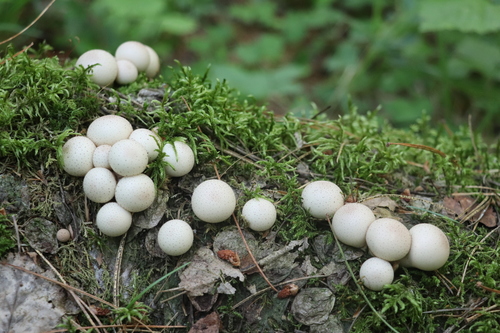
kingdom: Fungi
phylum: Basidiomycota
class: Agaricomycetes
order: Agaricales
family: Lycoperdaceae
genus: Apioperdon
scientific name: Apioperdon pyriforme
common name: Pear-shaped puffball
